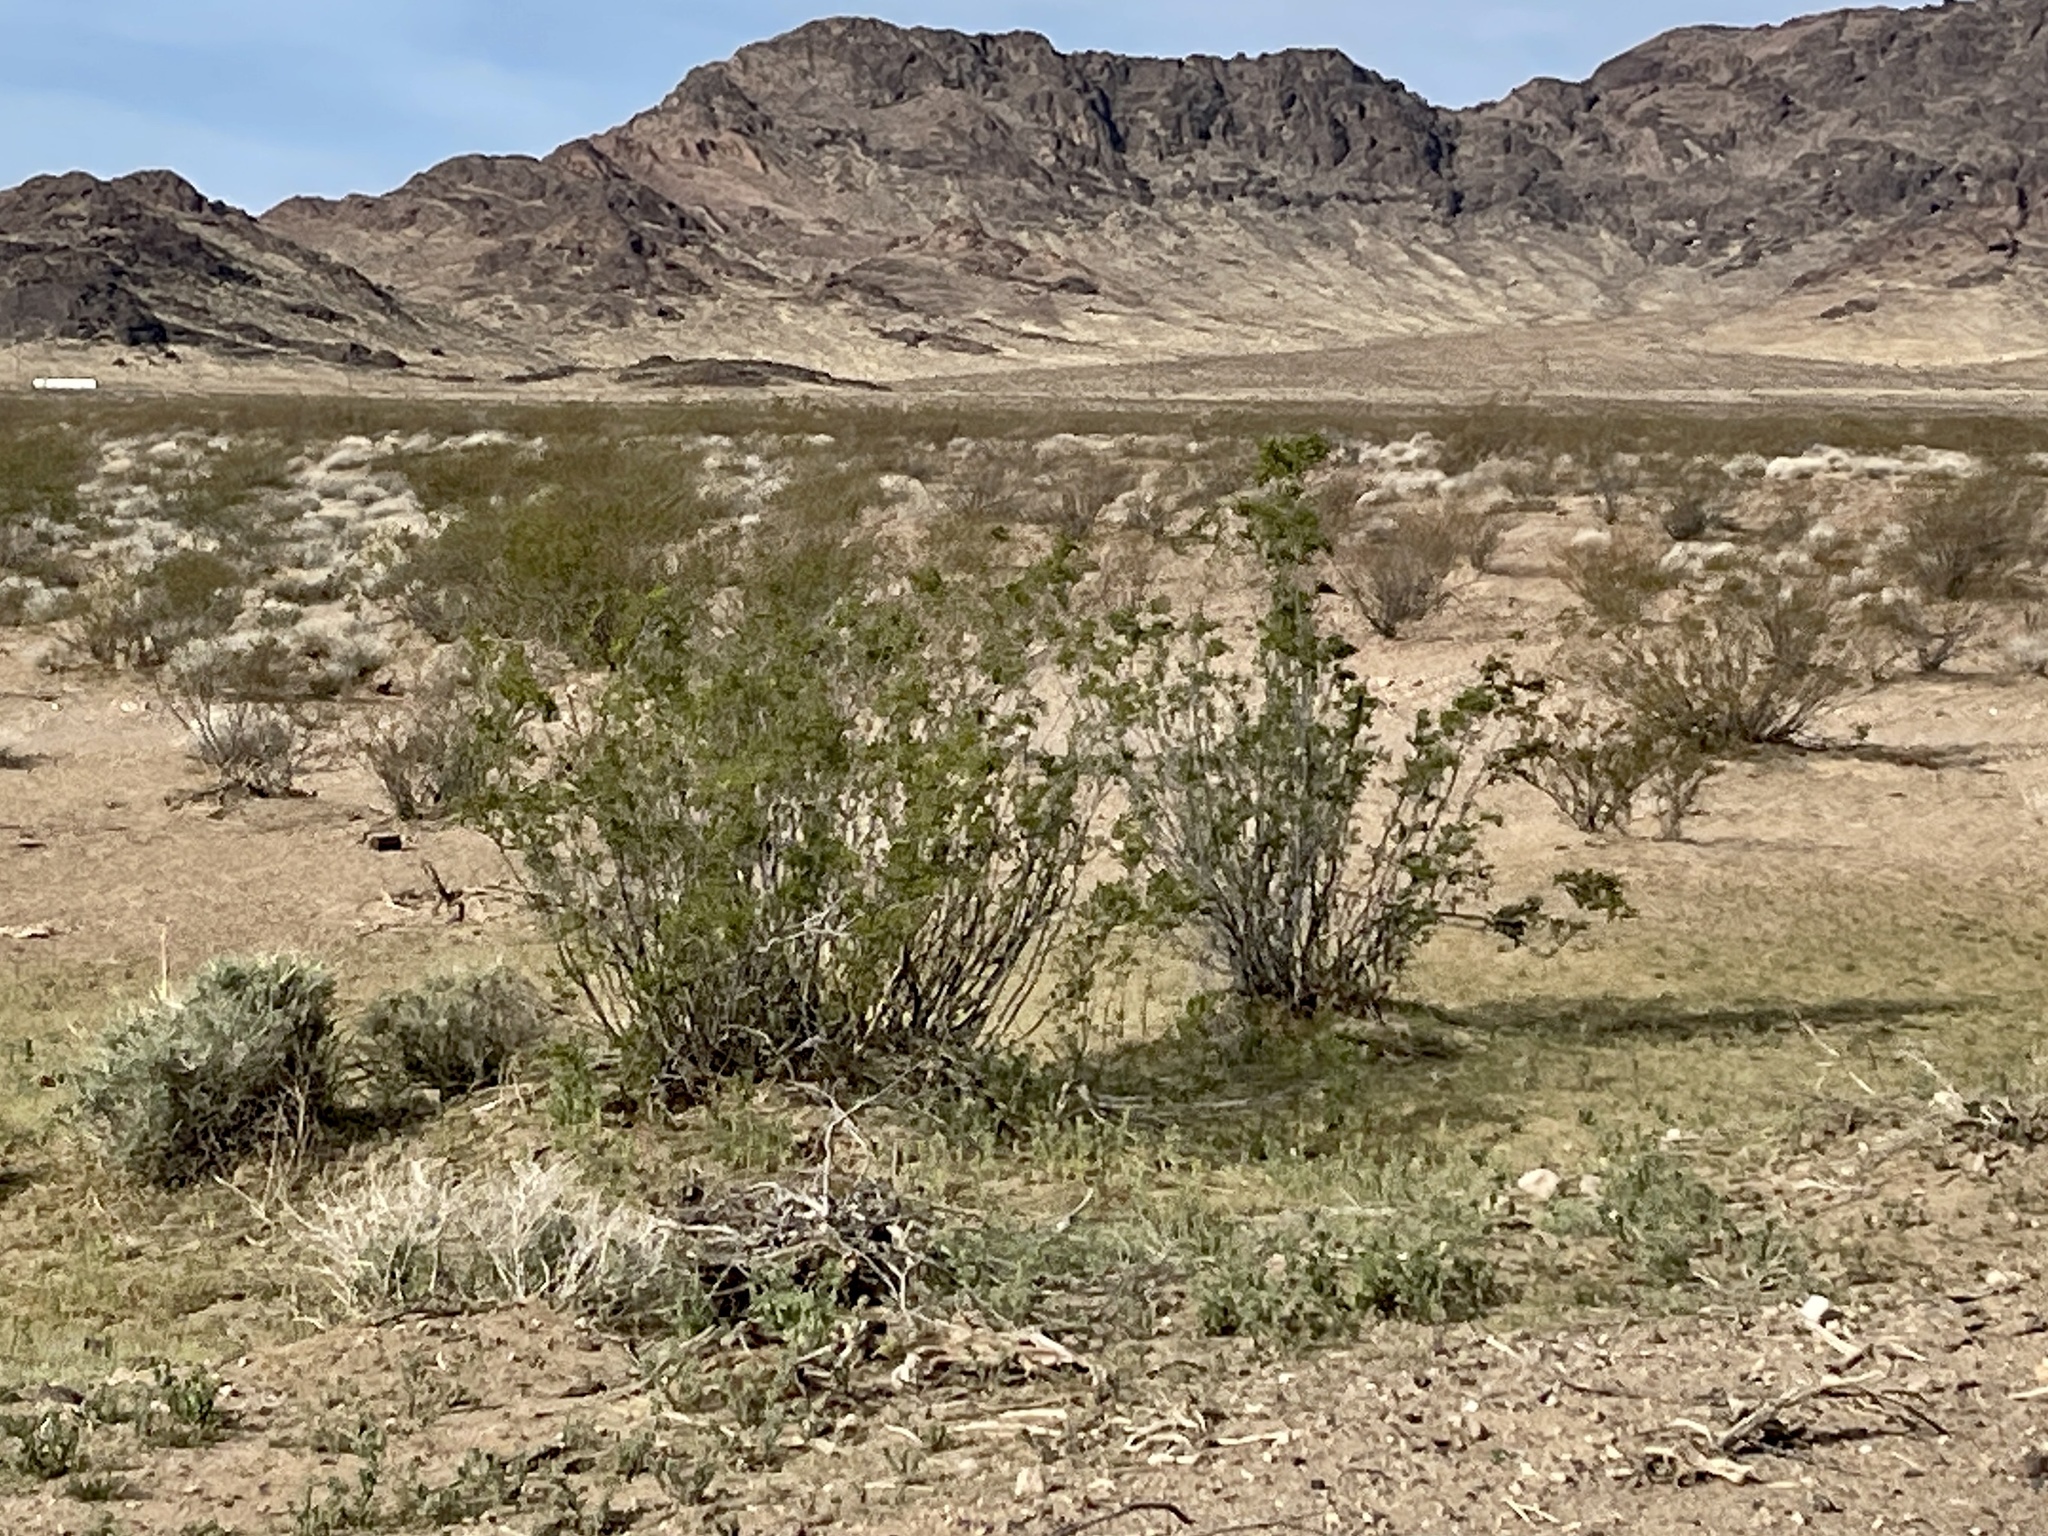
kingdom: Plantae
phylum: Tracheophyta
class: Magnoliopsida
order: Zygophyllales
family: Zygophyllaceae
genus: Larrea
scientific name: Larrea tridentata
